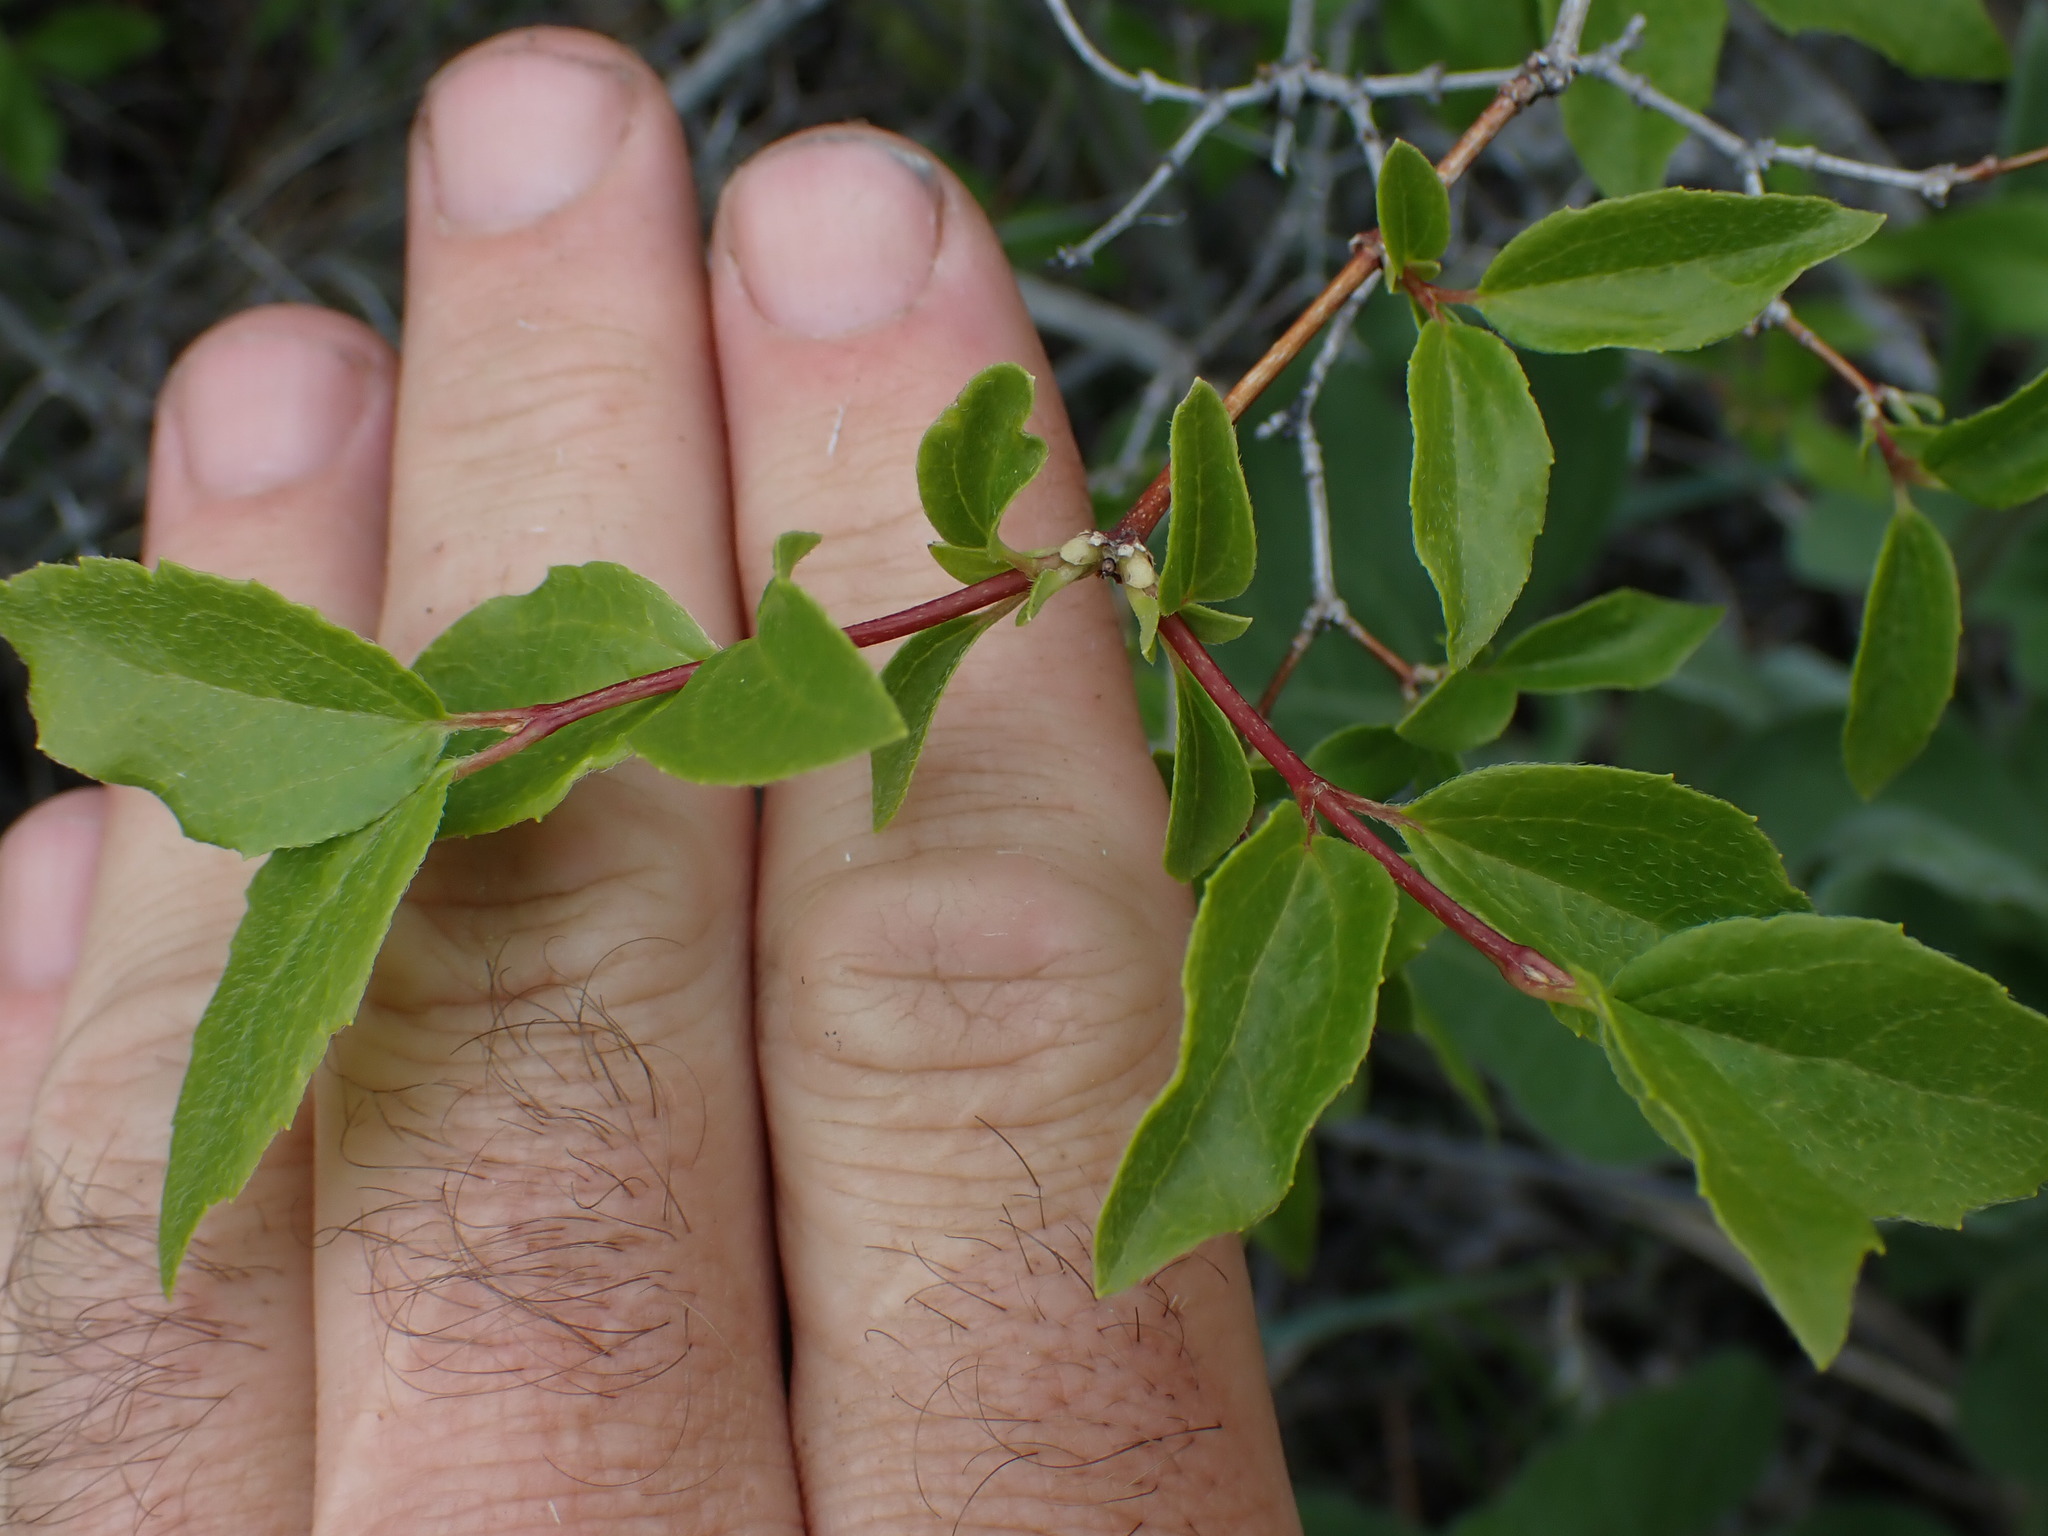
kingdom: Plantae
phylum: Tracheophyta
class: Magnoliopsida
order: Cornales
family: Hydrangeaceae
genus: Philadelphus
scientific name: Philadelphus lewisii
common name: Lewis's mock orange
